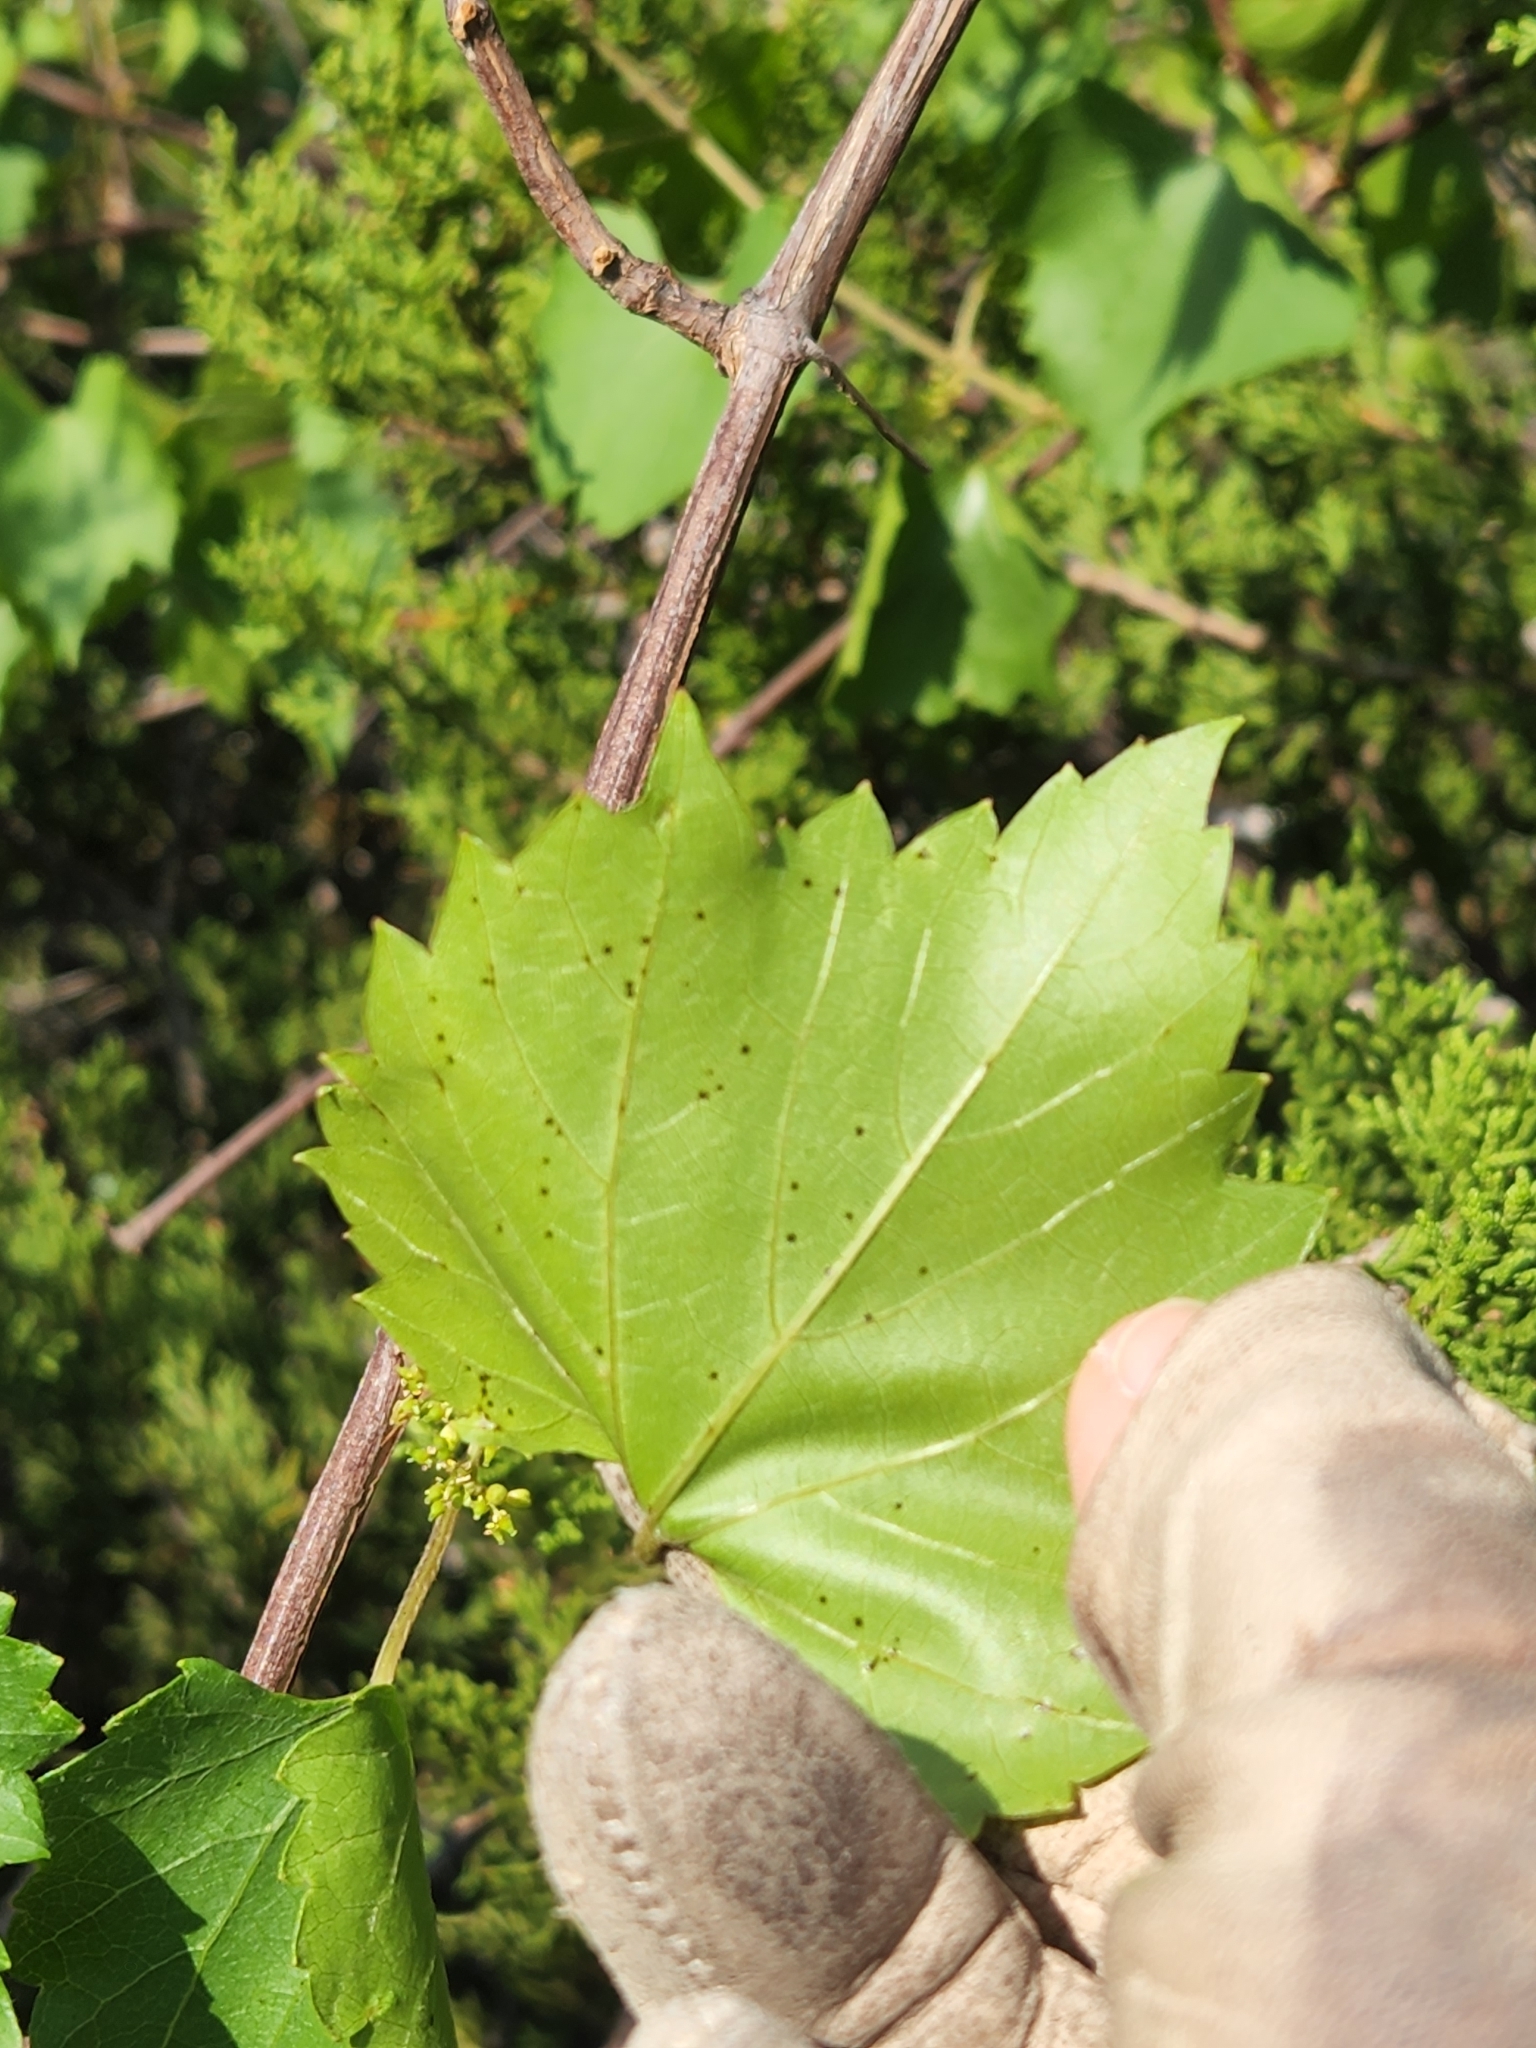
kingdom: Plantae
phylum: Tracheophyta
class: Magnoliopsida
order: Vitales
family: Vitaceae
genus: Vitis
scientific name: Vitis monticola
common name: Mountain grape
